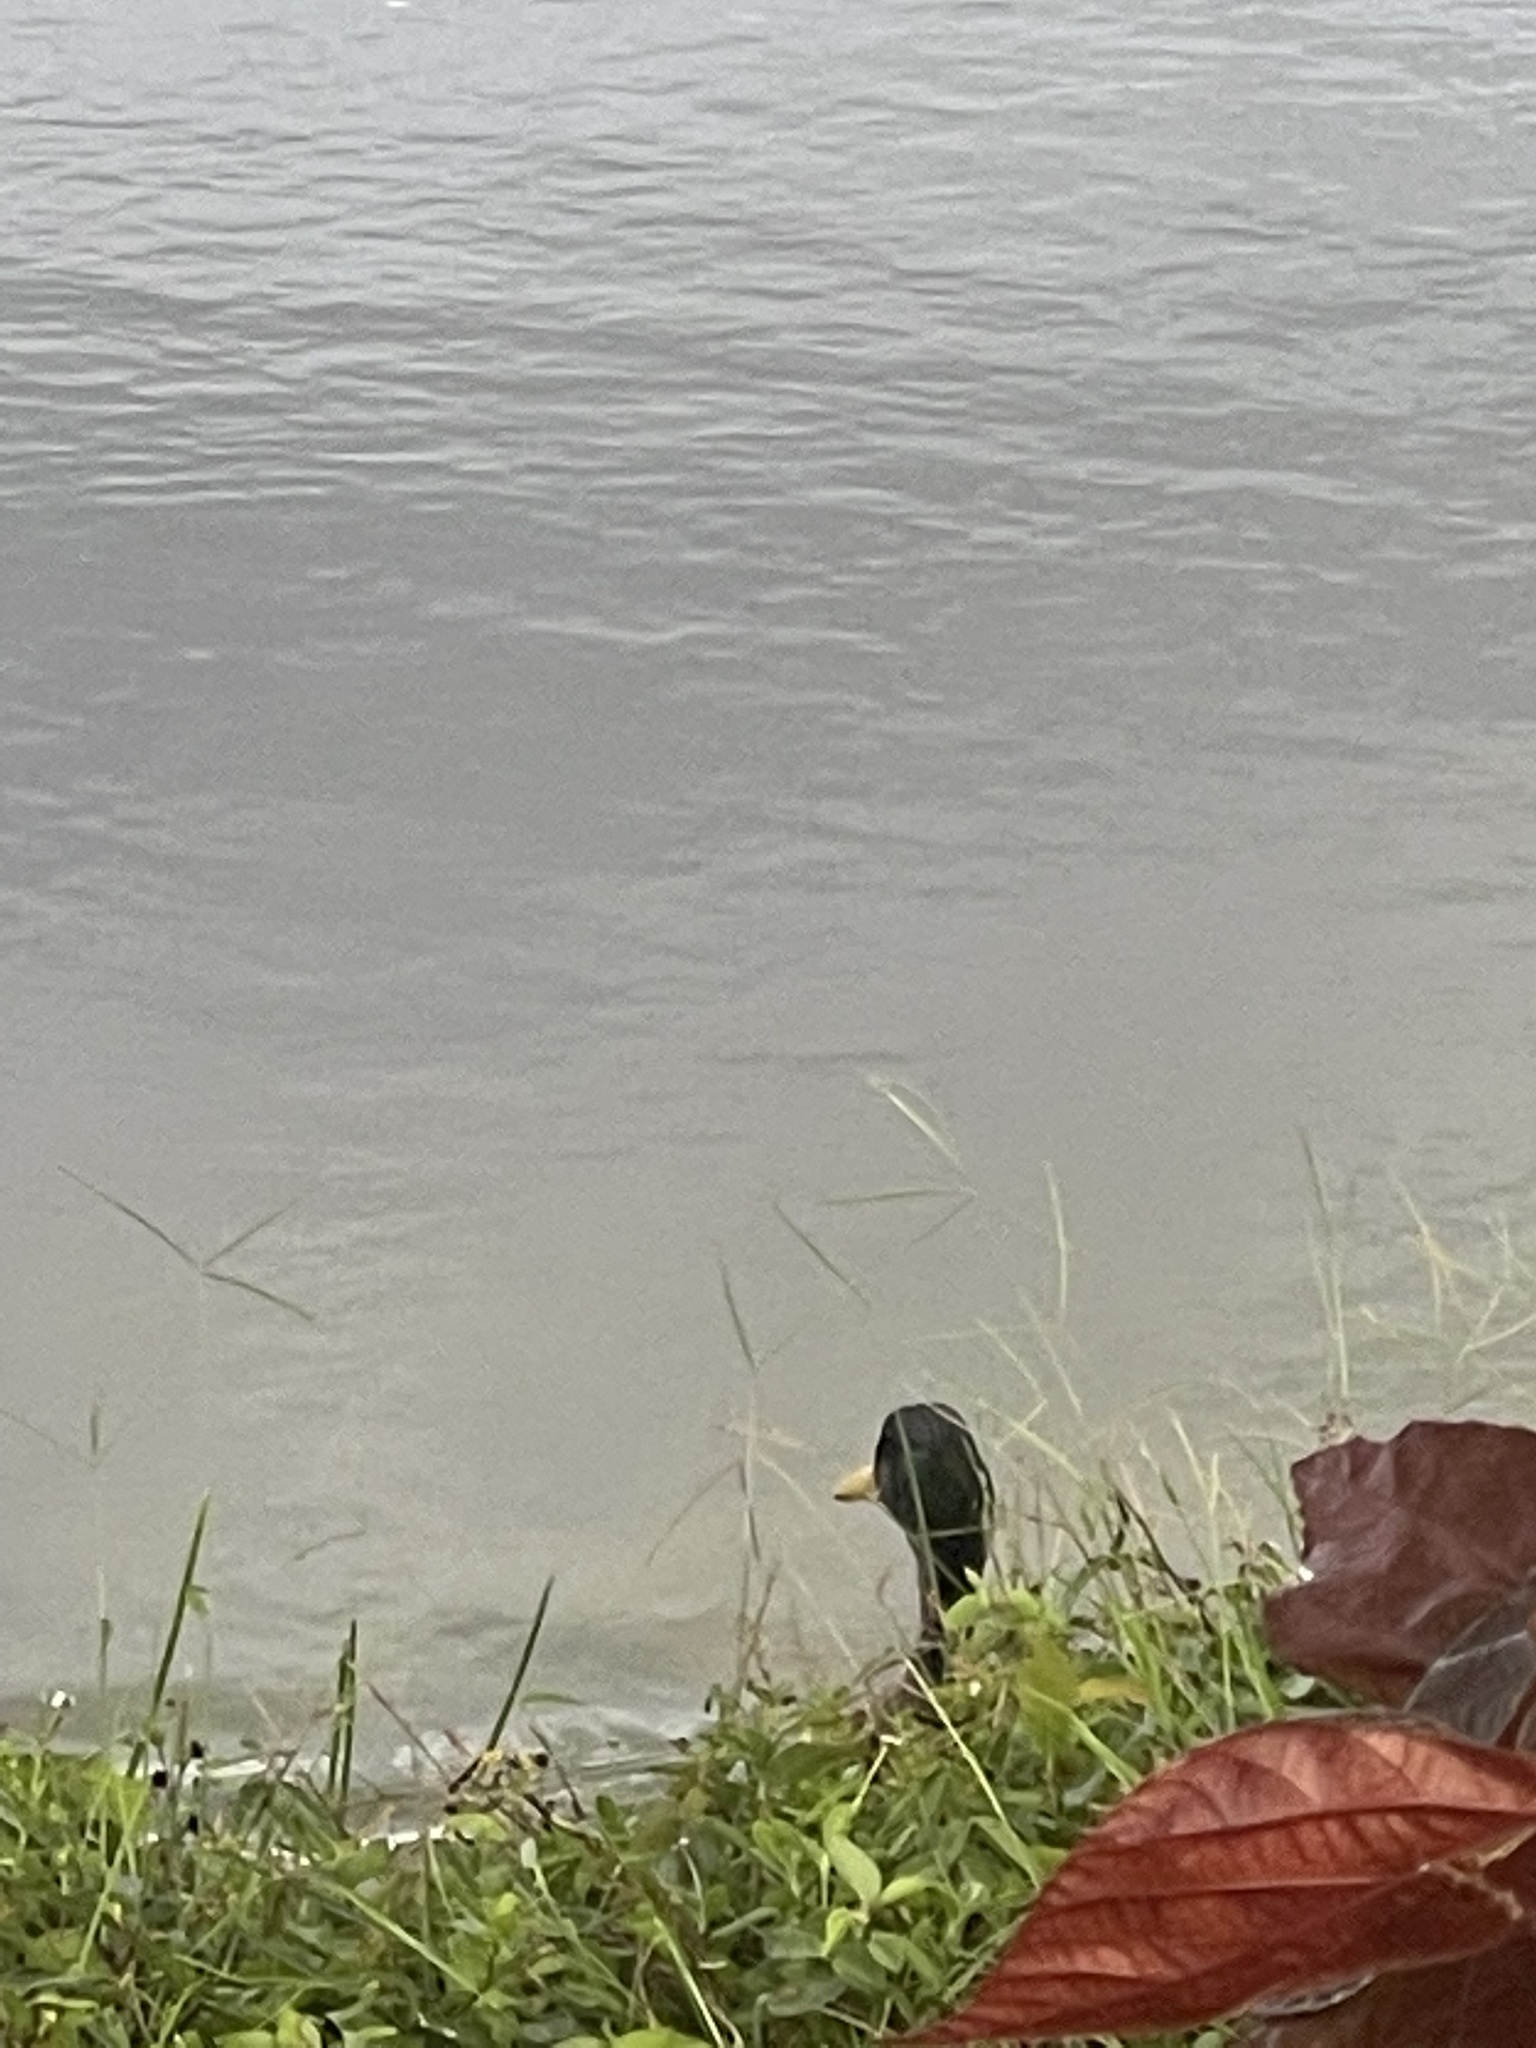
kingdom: Animalia
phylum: Chordata
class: Aves
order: Anseriformes
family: Anatidae
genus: Anas
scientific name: Anas platyrhynchos
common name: Mallard
